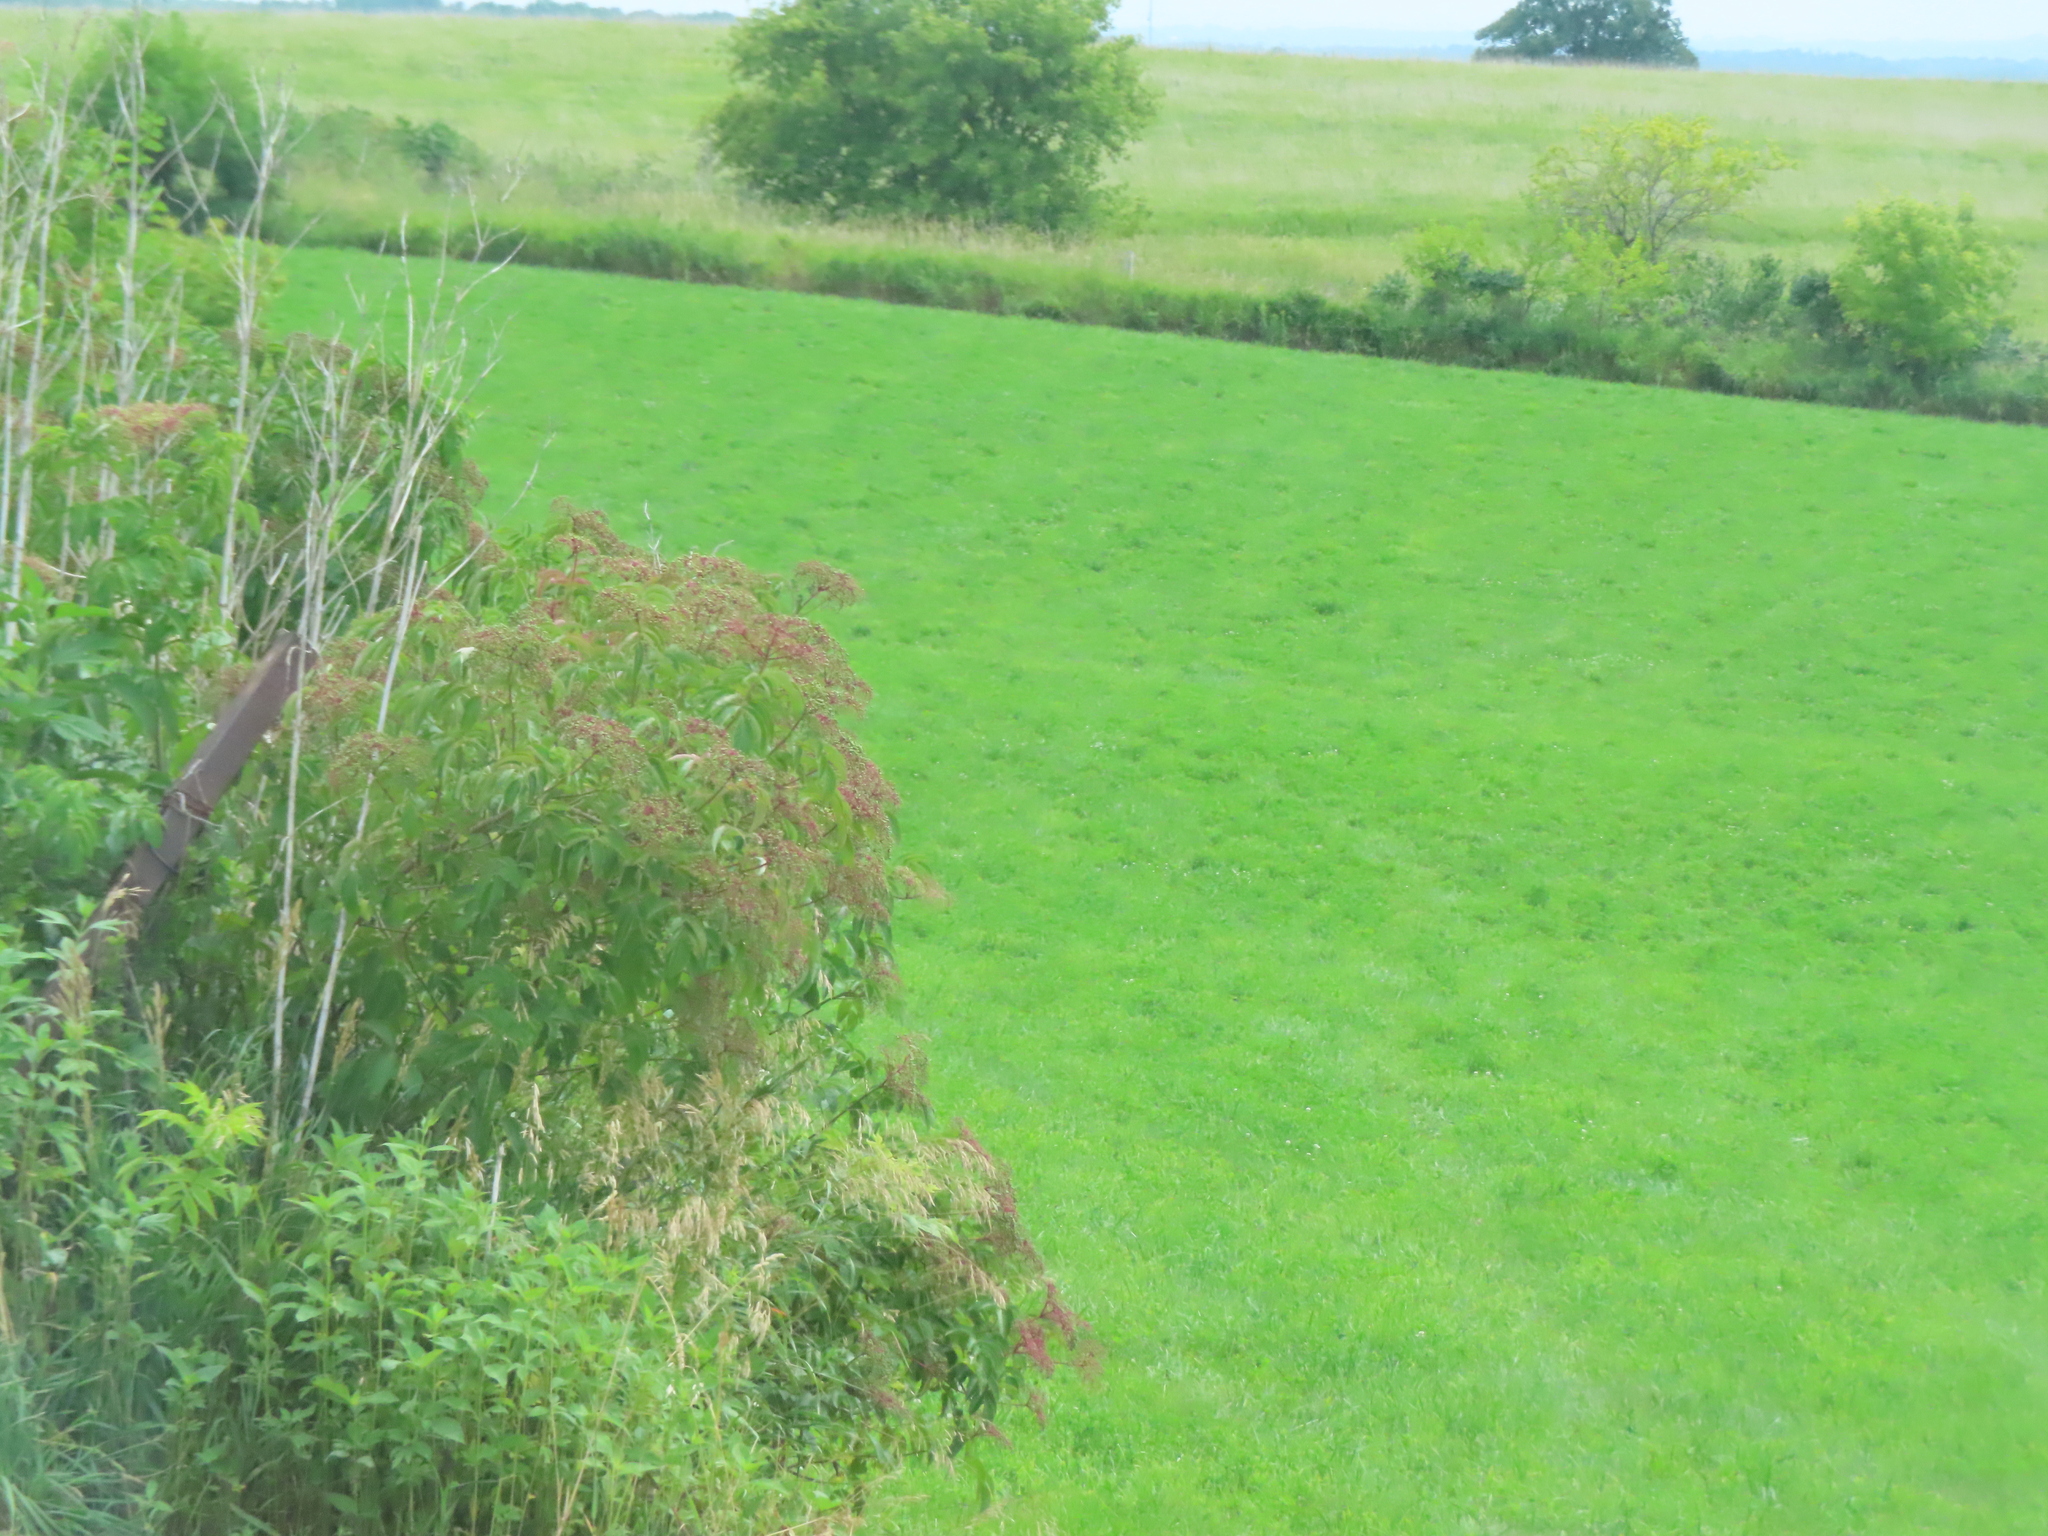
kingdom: Plantae
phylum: Tracheophyta
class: Magnoliopsida
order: Dipsacales
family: Viburnaceae
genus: Sambucus
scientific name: Sambucus canadensis
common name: American elder
